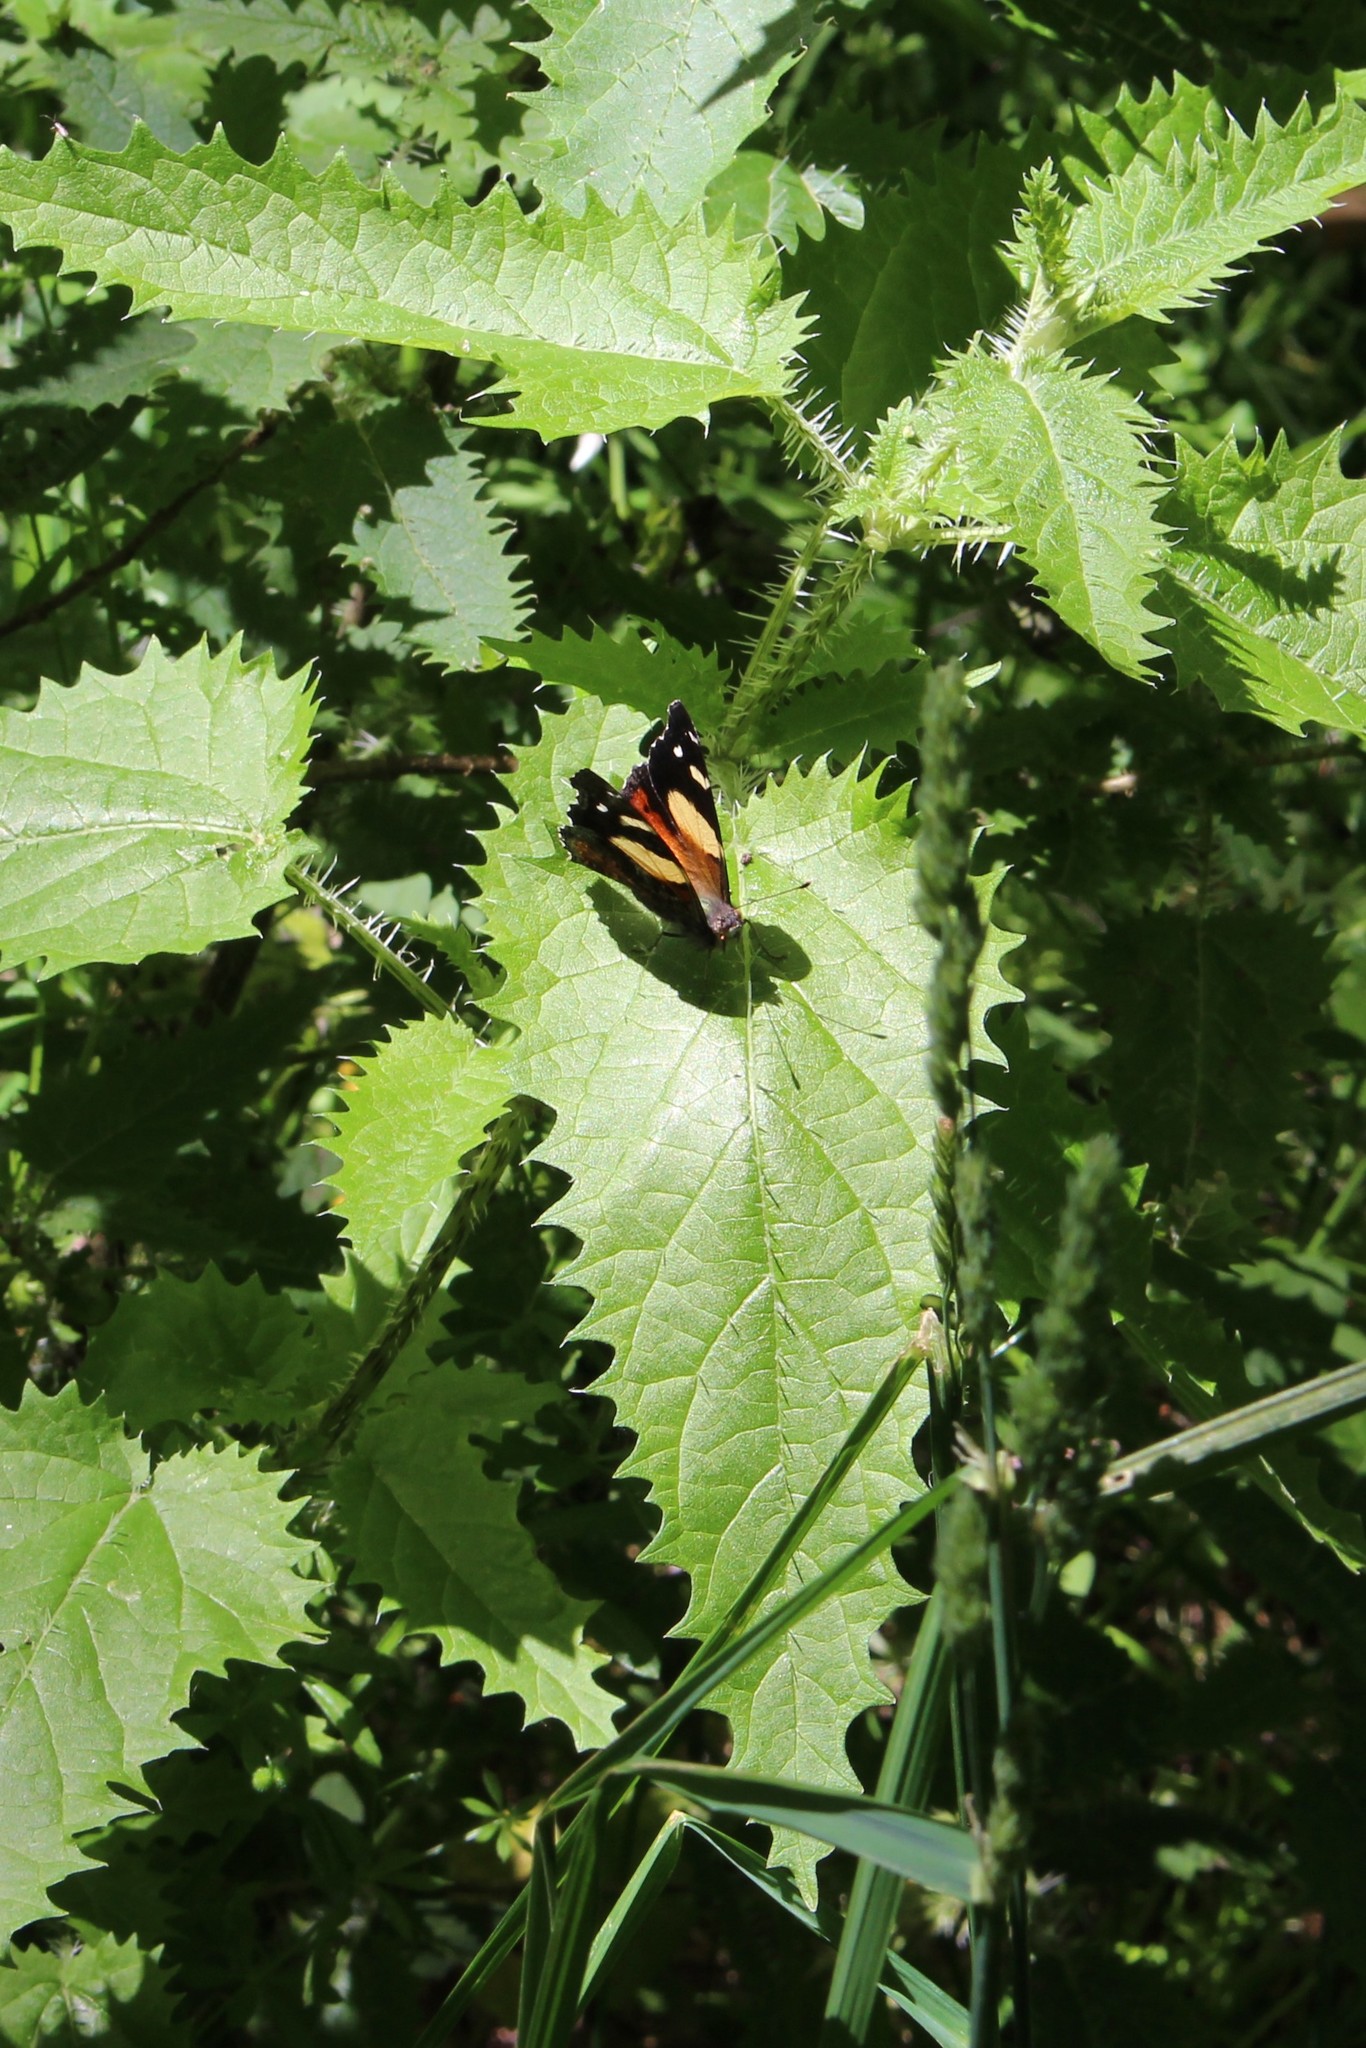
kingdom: Plantae
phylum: Tracheophyta
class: Magnoliopsida
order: Rosales
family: Urticaceae
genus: Urtica
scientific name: Urtica ferox
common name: Tree nettle
